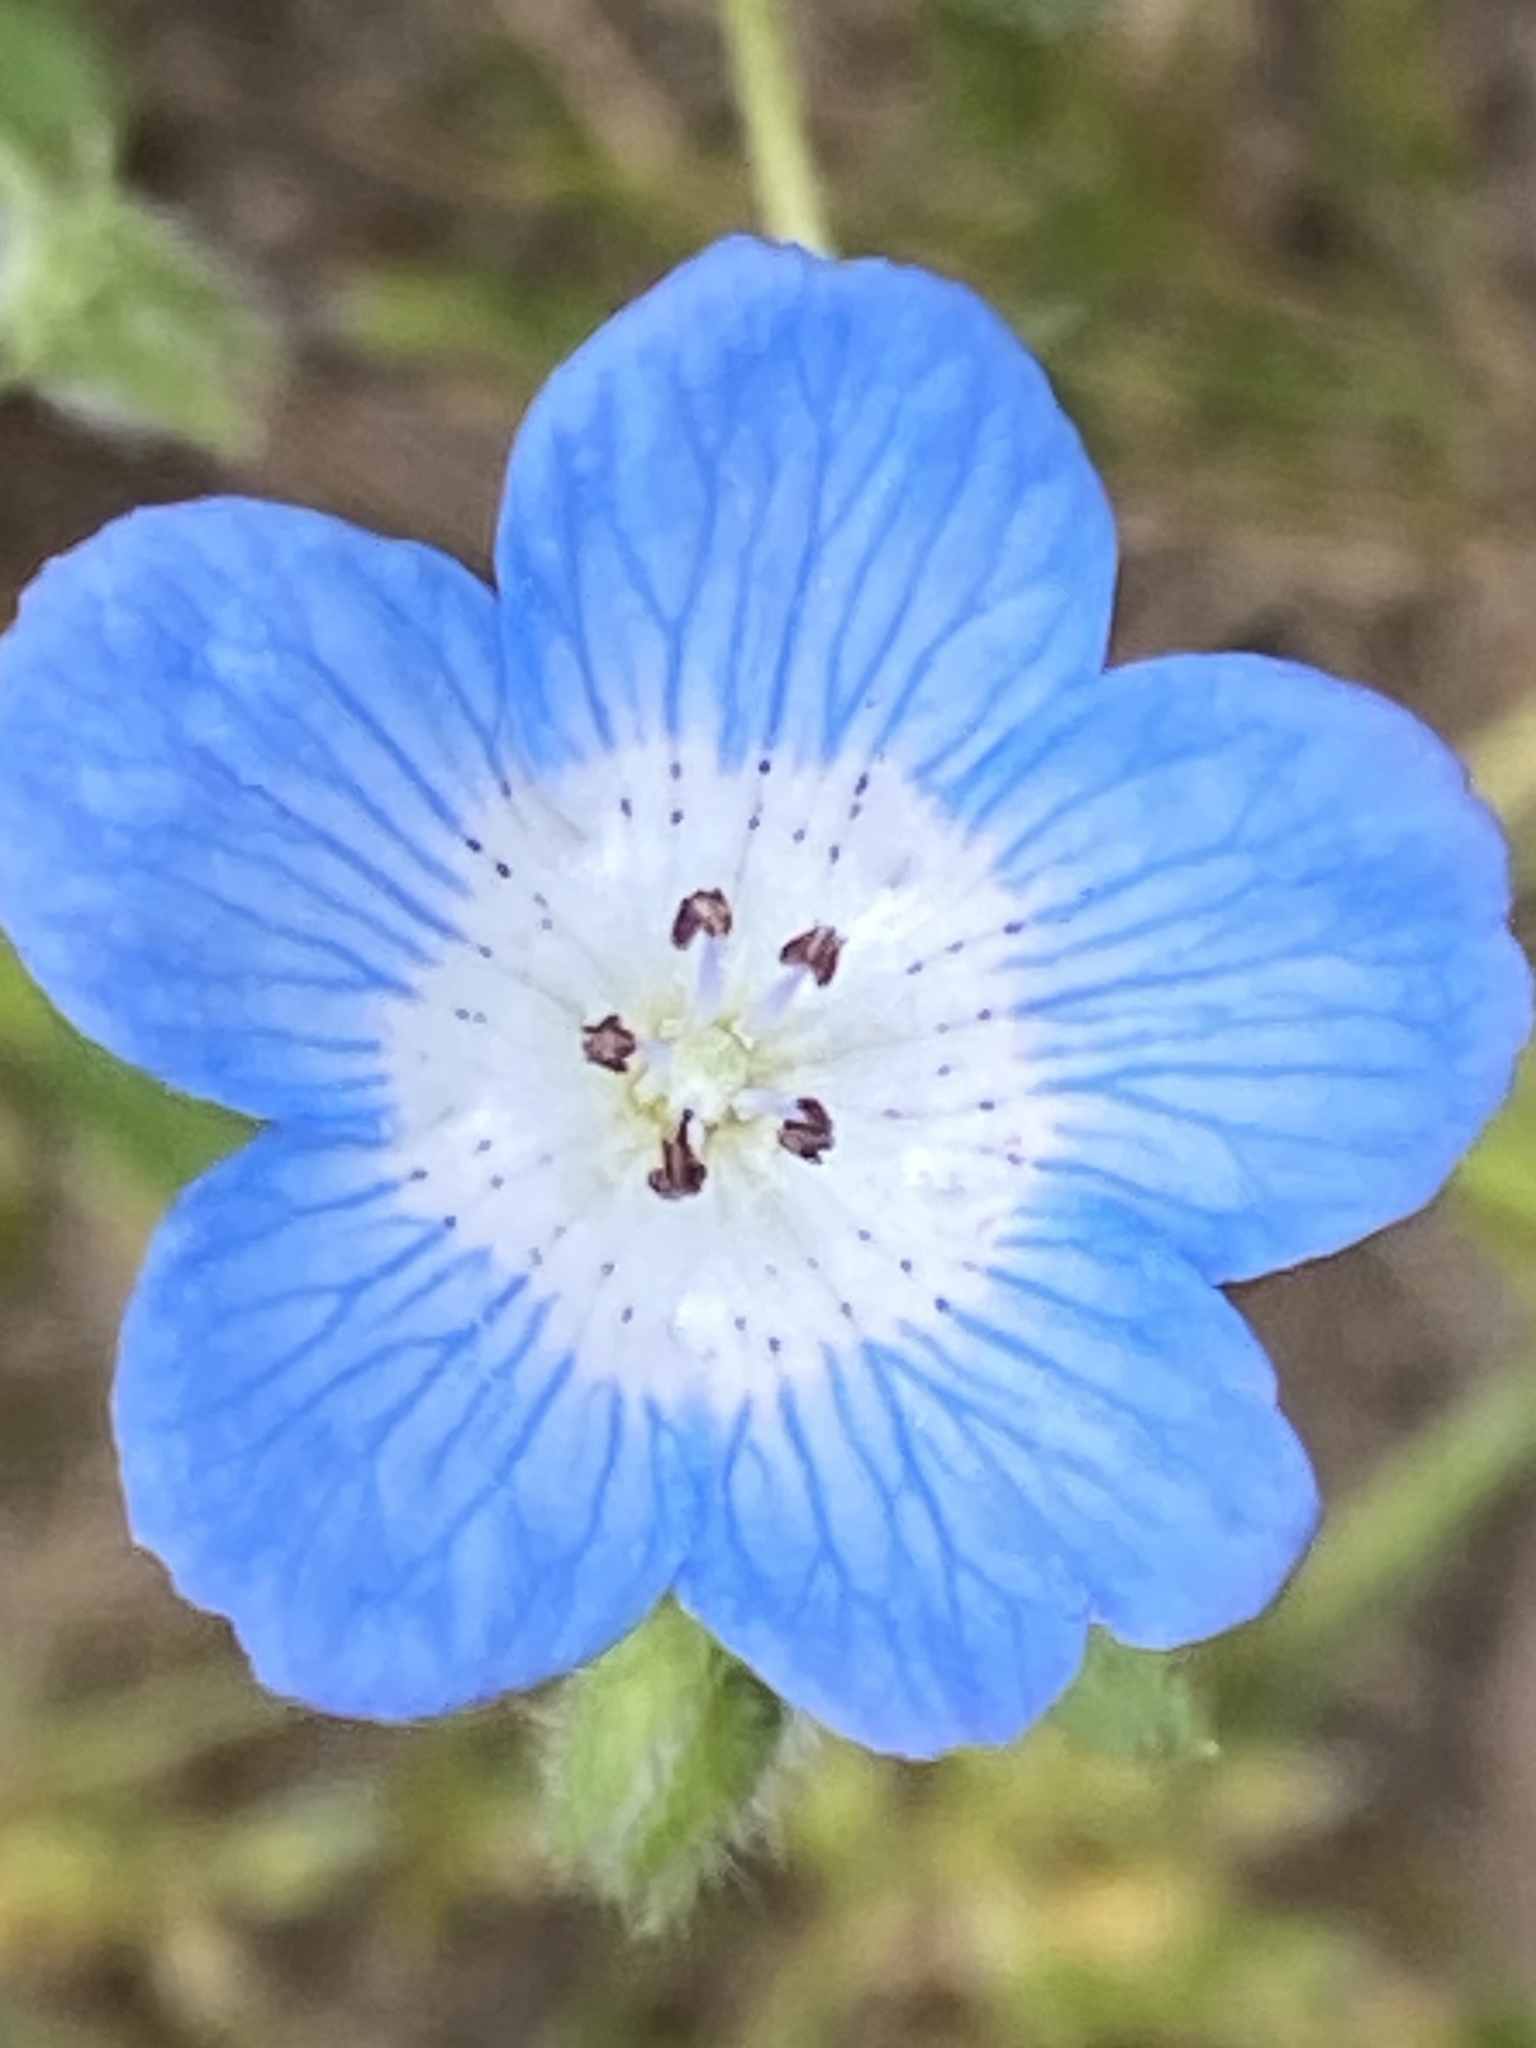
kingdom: Plantae
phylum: Tracheophyta
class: Magnoliopsida
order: Boraginales
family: Hydrophyllaceae
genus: Nemophila
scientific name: Nemophila menziesii
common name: Baby's-blue-eyes
